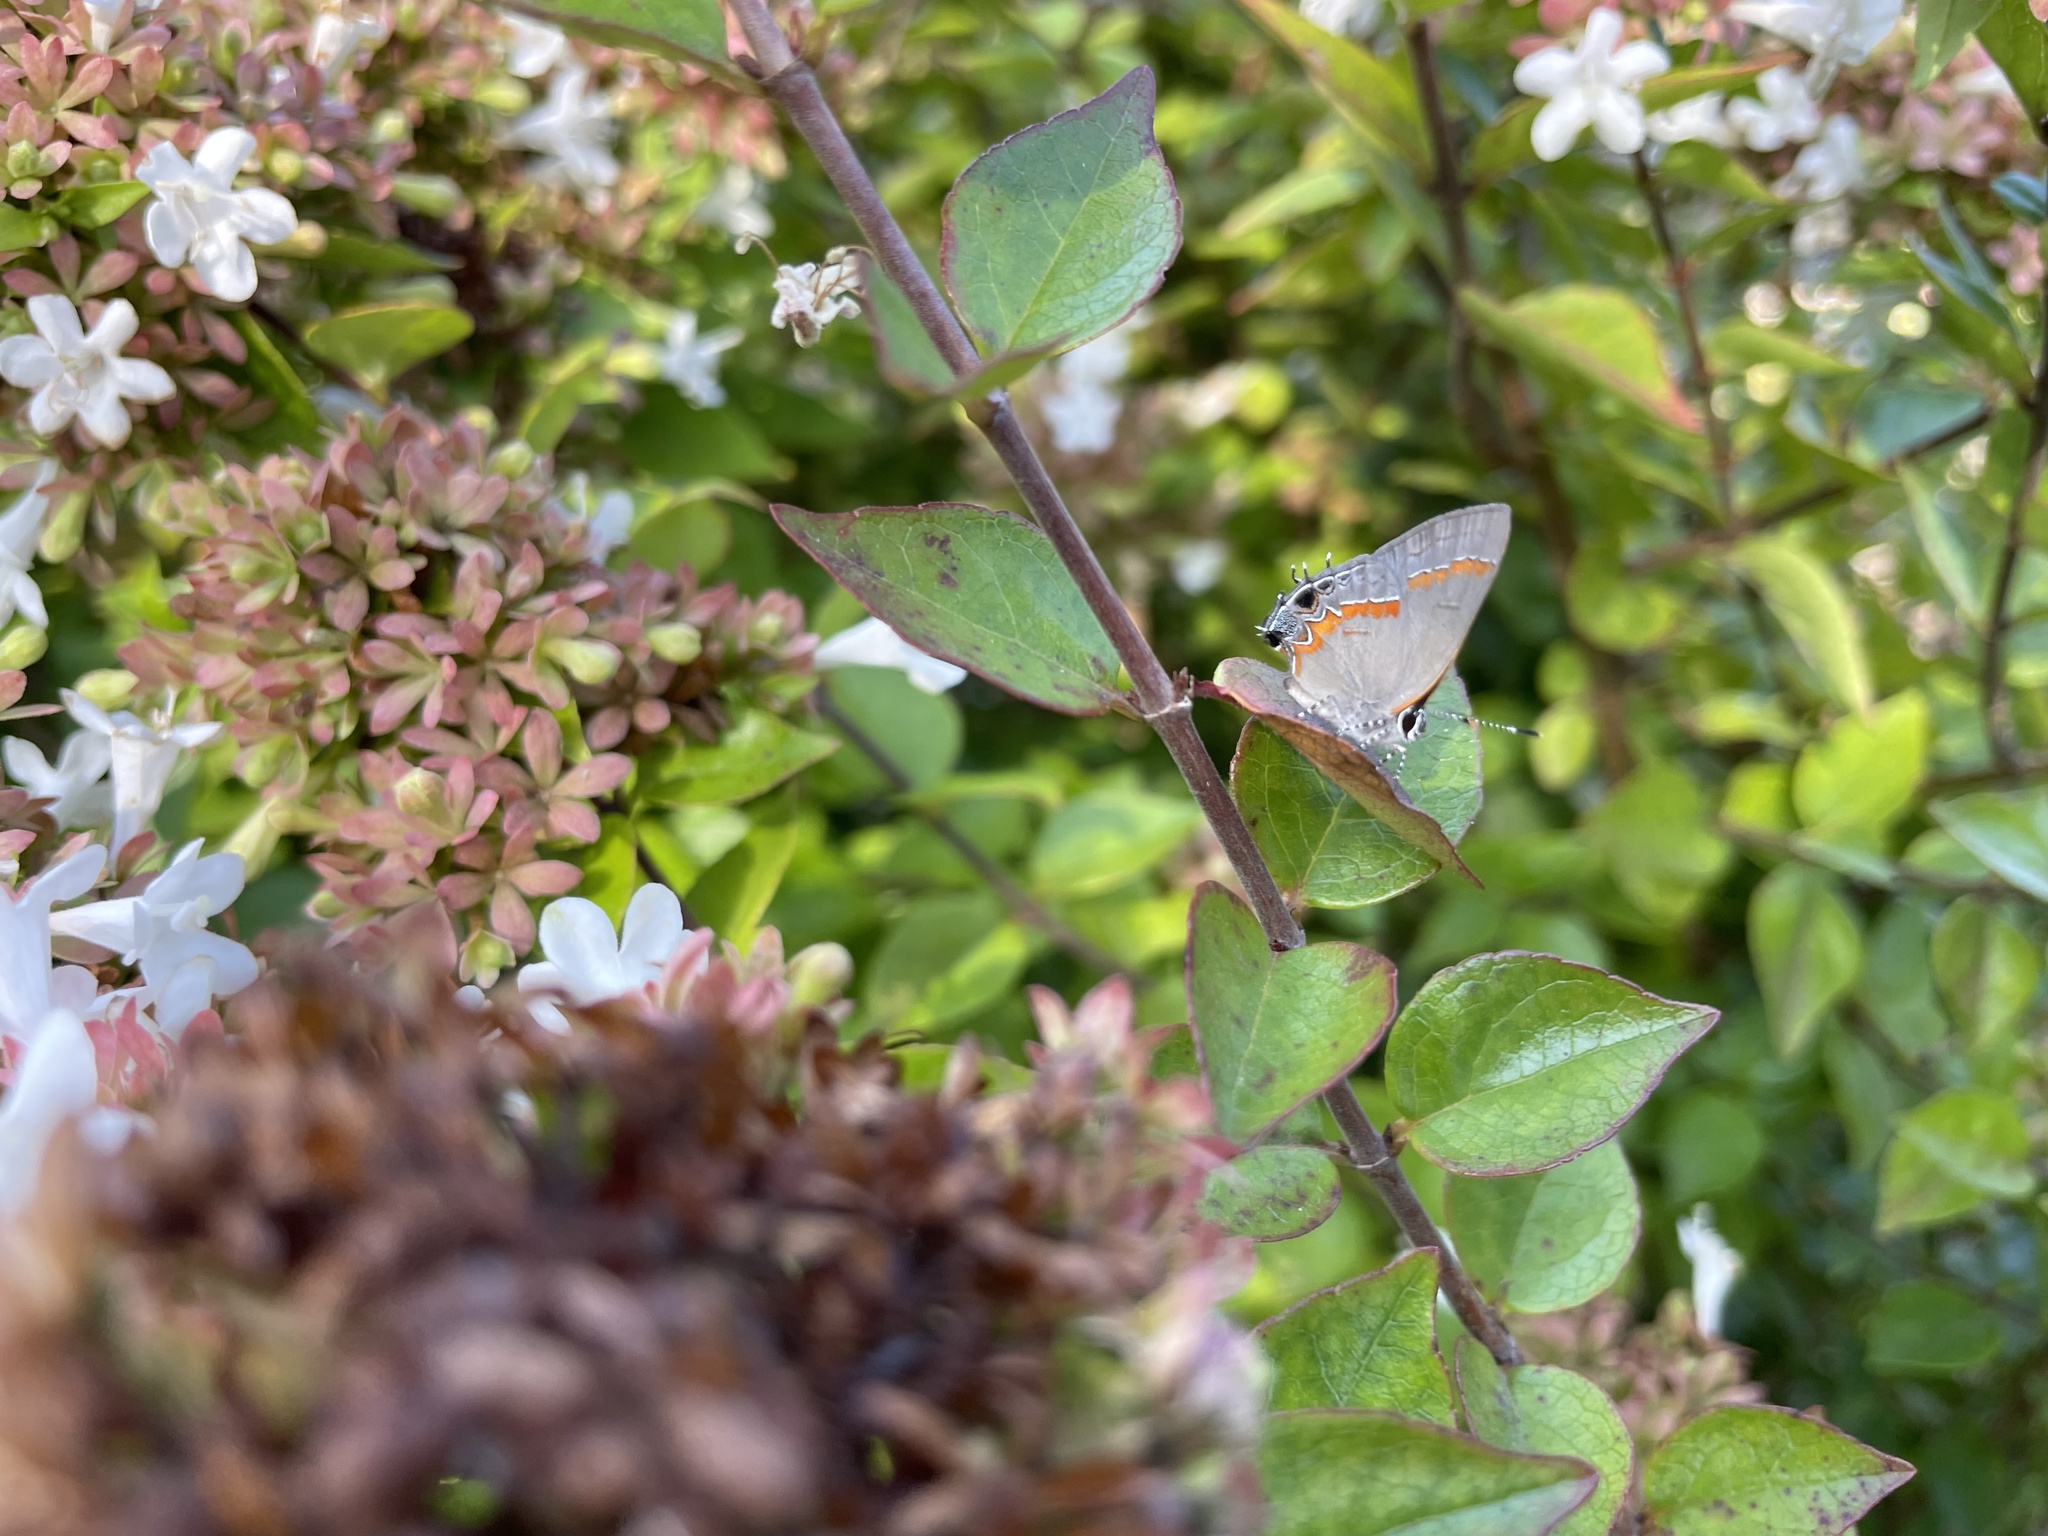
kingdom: Animalia
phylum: Arthropoda
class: Insecta
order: Lepidoptera
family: Lycaenidae
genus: Calycopis
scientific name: Calycopis cecrops
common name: Red-banded hairstreak
